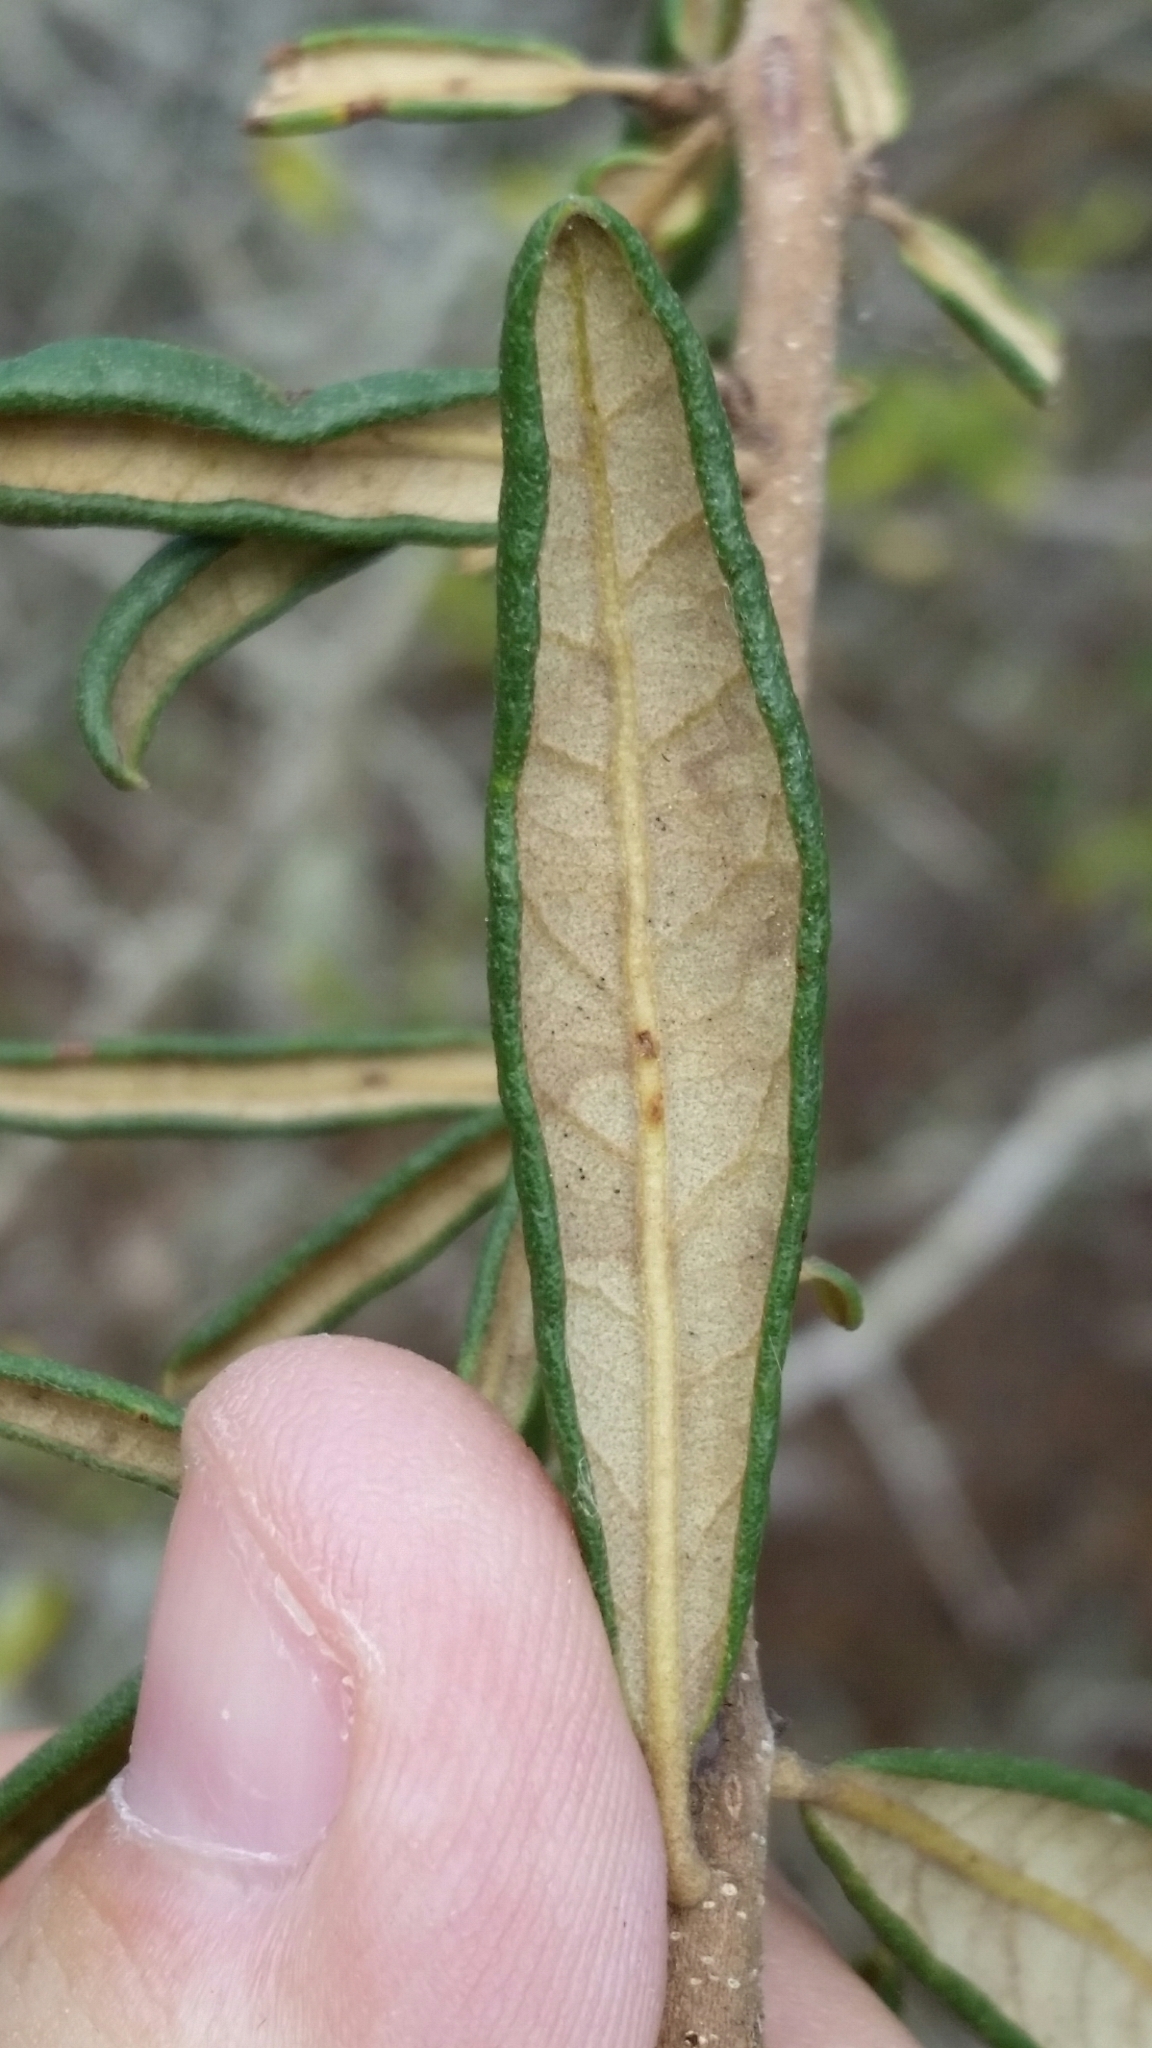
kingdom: Plantae
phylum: Tracheophyta
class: Magnoliopsida
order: Fagales
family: Fagaceae
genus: Quercus
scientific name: Quercus geminata
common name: Sand live oak
